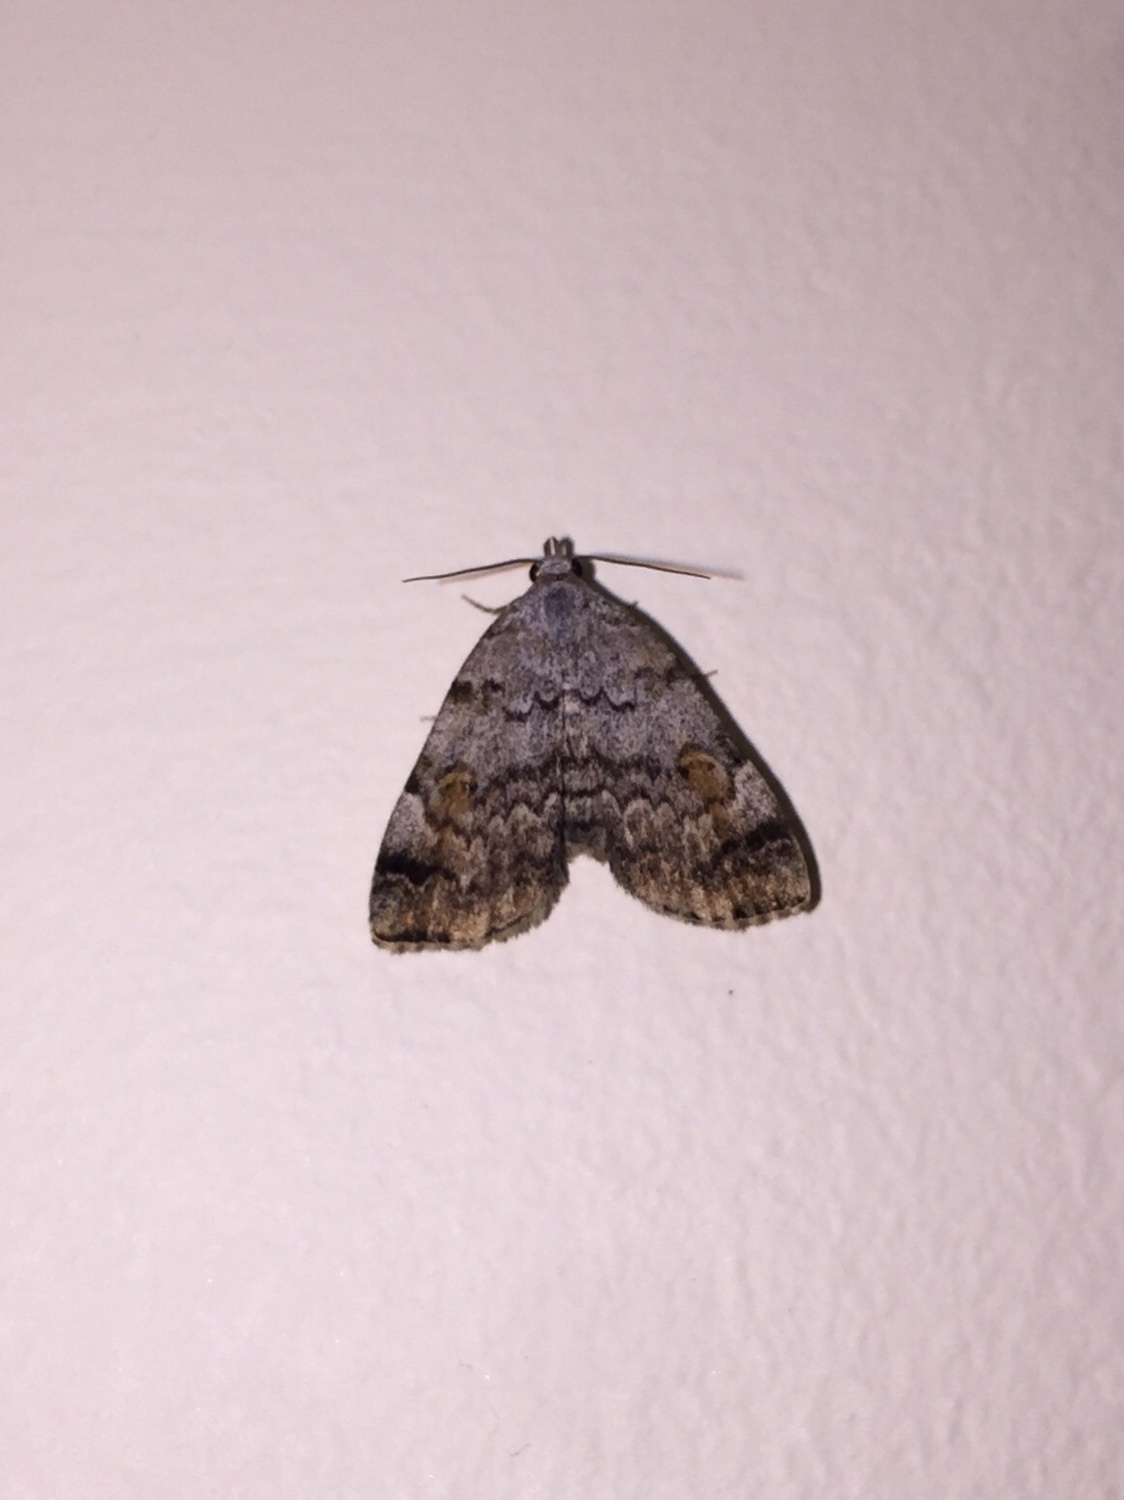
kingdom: Animalia
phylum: Arthropoda
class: Insecta
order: Lepidoptera
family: Erebidae
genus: Idia
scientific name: Idia americalis
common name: American idia moth
